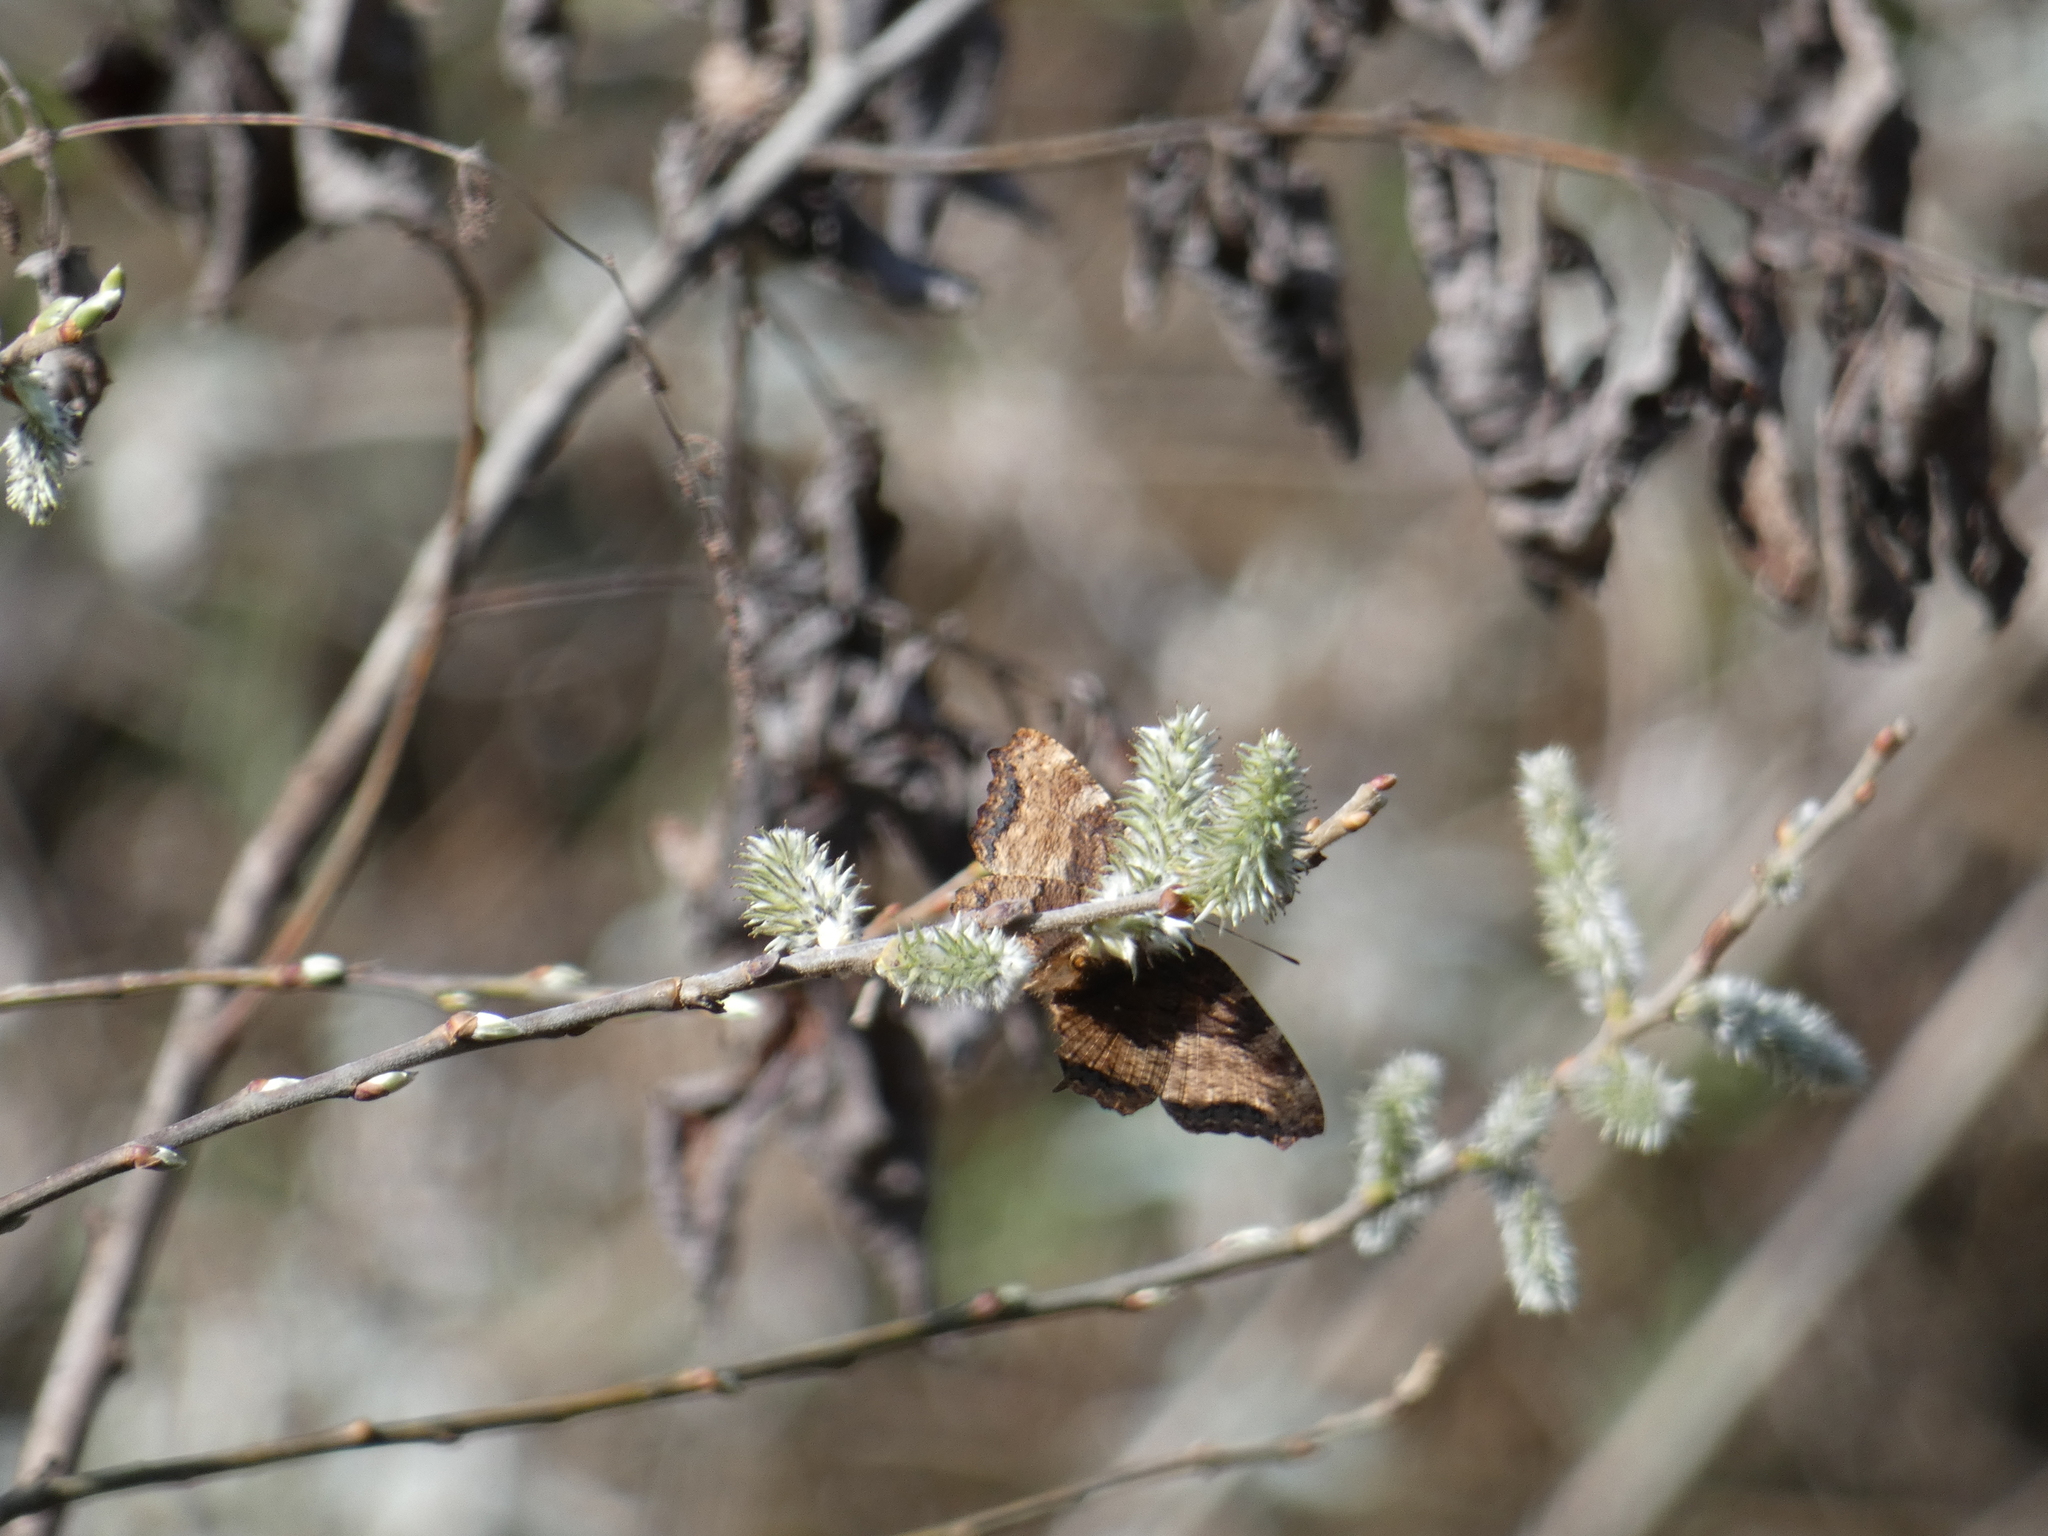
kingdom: Animalia
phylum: Arthropoda
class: Insecta
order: Lepidoptera
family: Nymphalidae
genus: Nymphalis
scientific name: Nymphalis polychloros
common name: Large tortoiseshell
